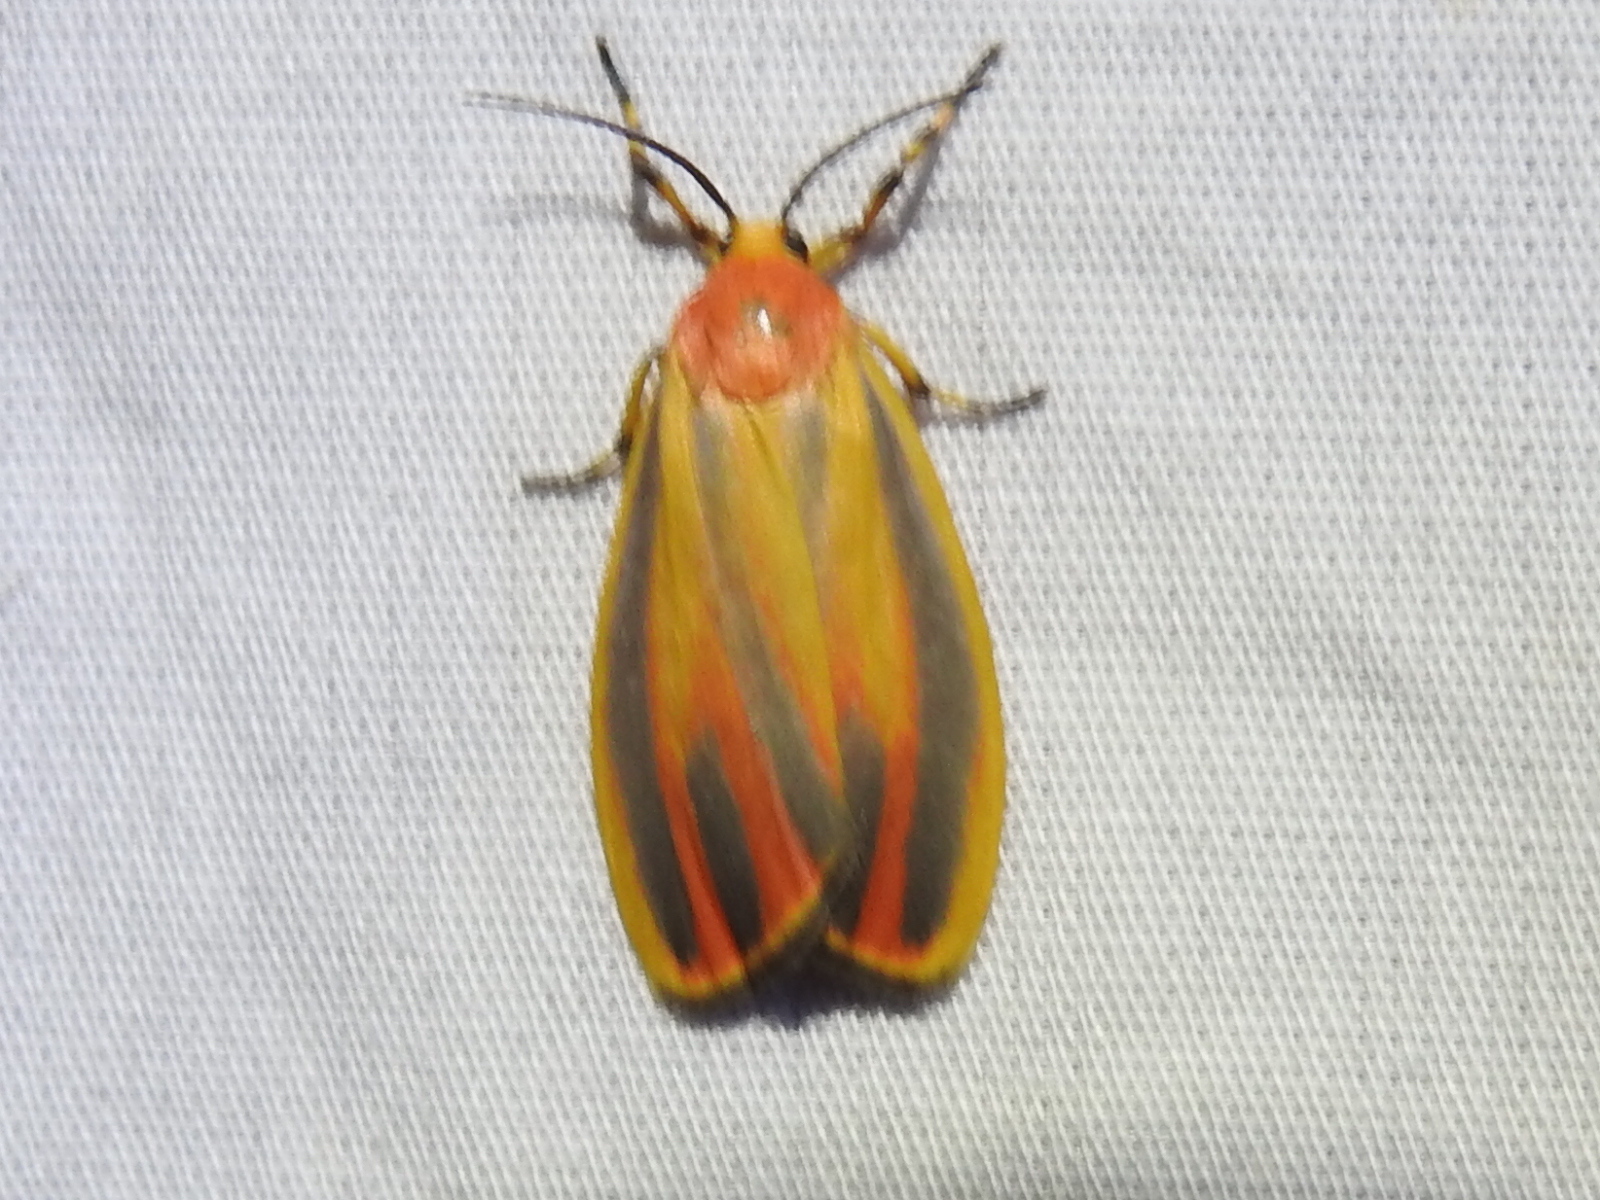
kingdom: Animalia
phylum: Arthropoda
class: Insecta
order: Lepidoptera
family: Erebidae
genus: Hypoprepia
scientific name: Hypoprepia fucosa
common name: Painted lichen moth
